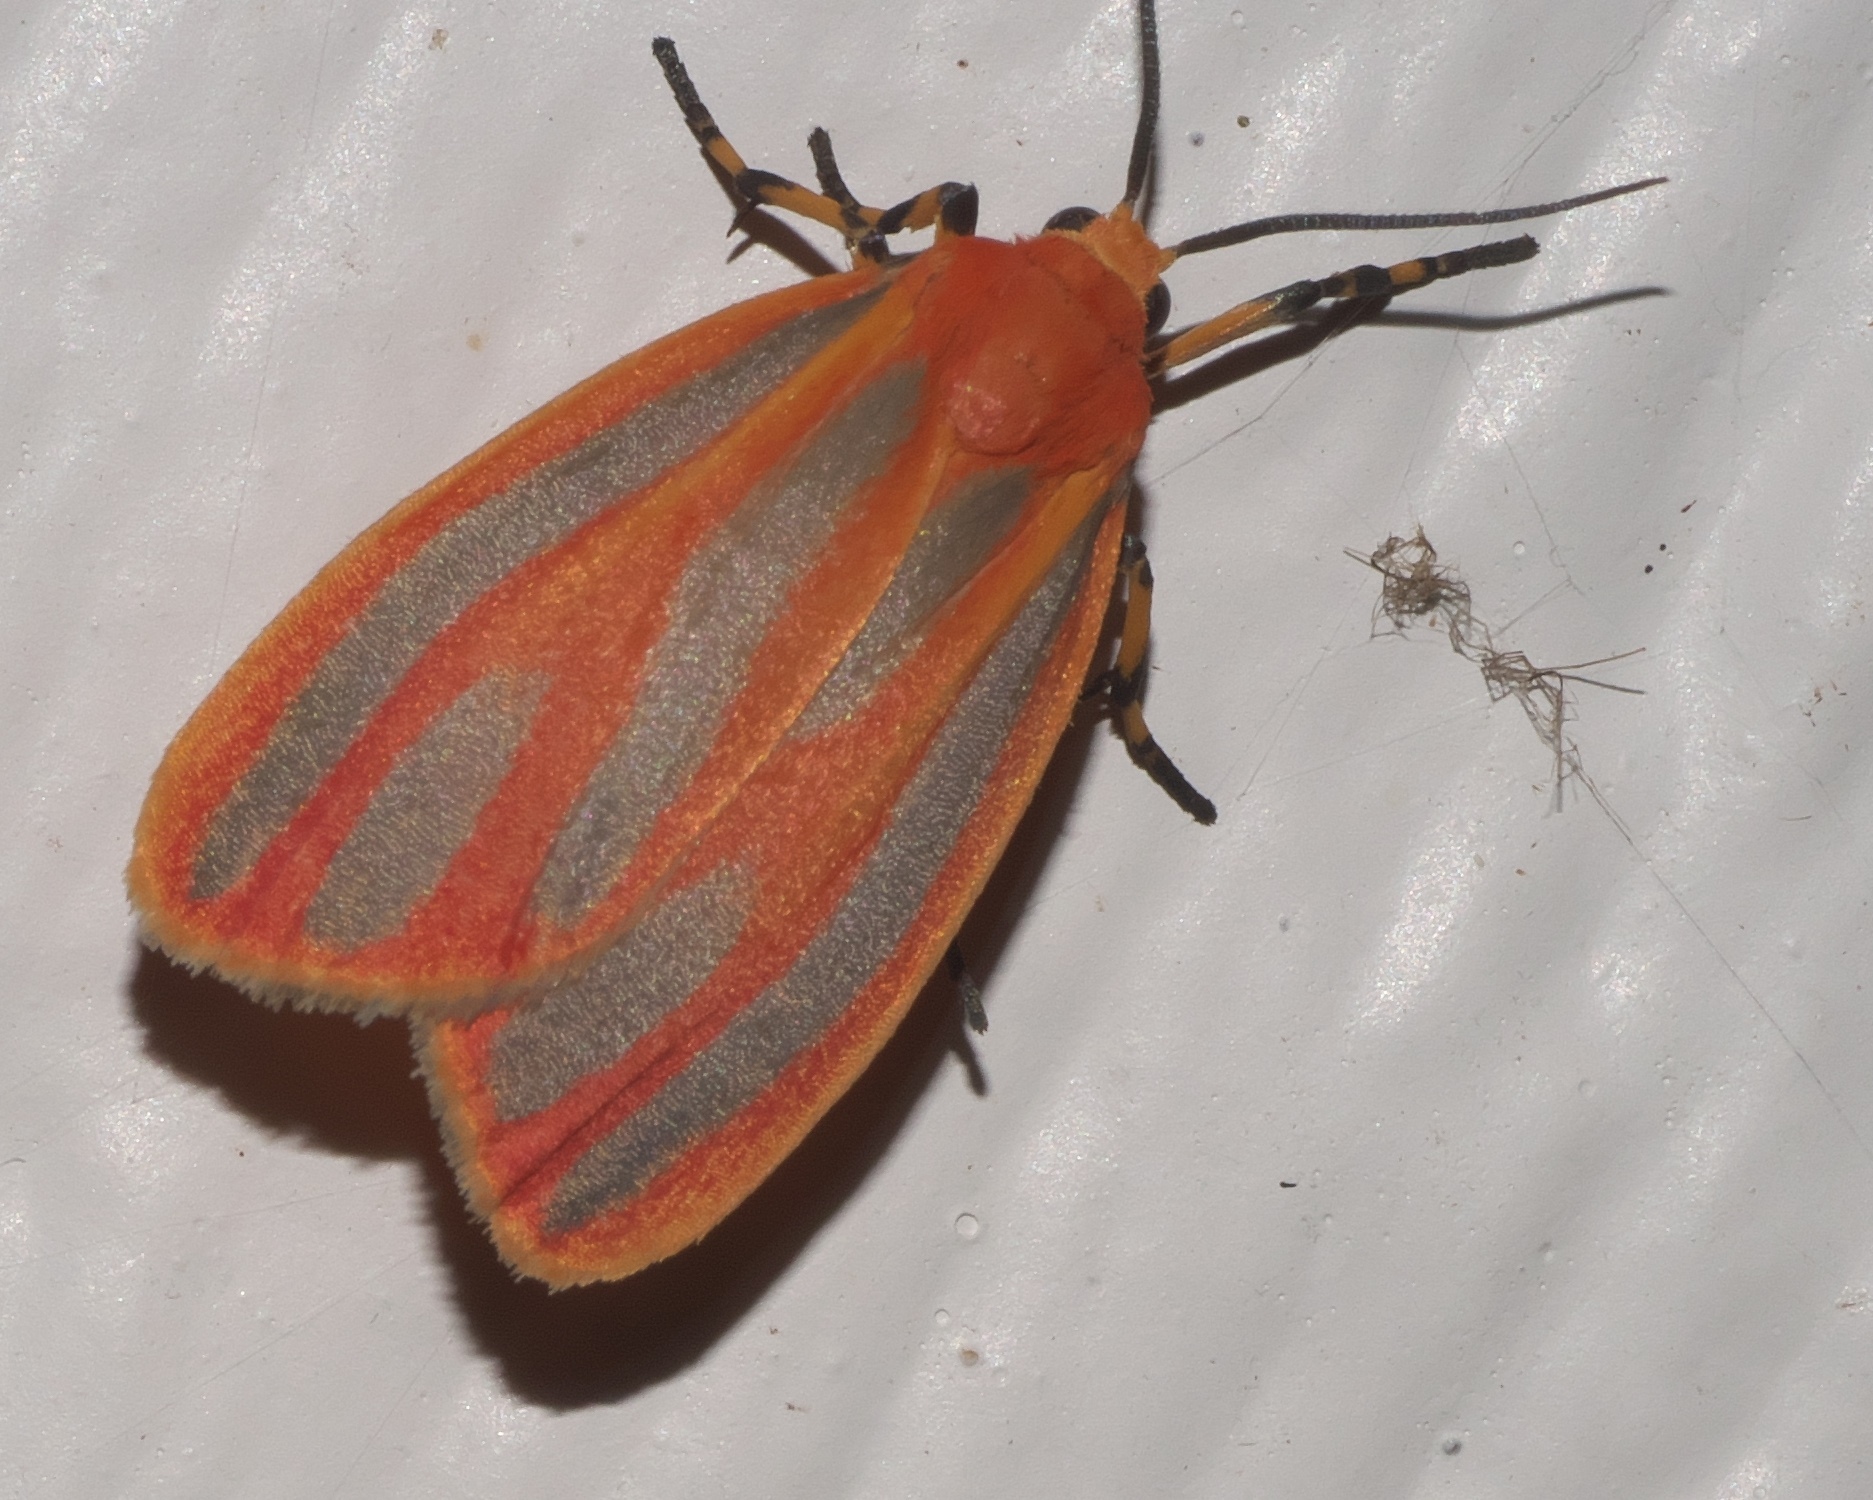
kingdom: Animalia
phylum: Arthropoda
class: Insecta
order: Lepidoptera
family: Erebidae
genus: Hypoprepia
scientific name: Hypoprepia miniata
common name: Scarlet-winged lichen moth
